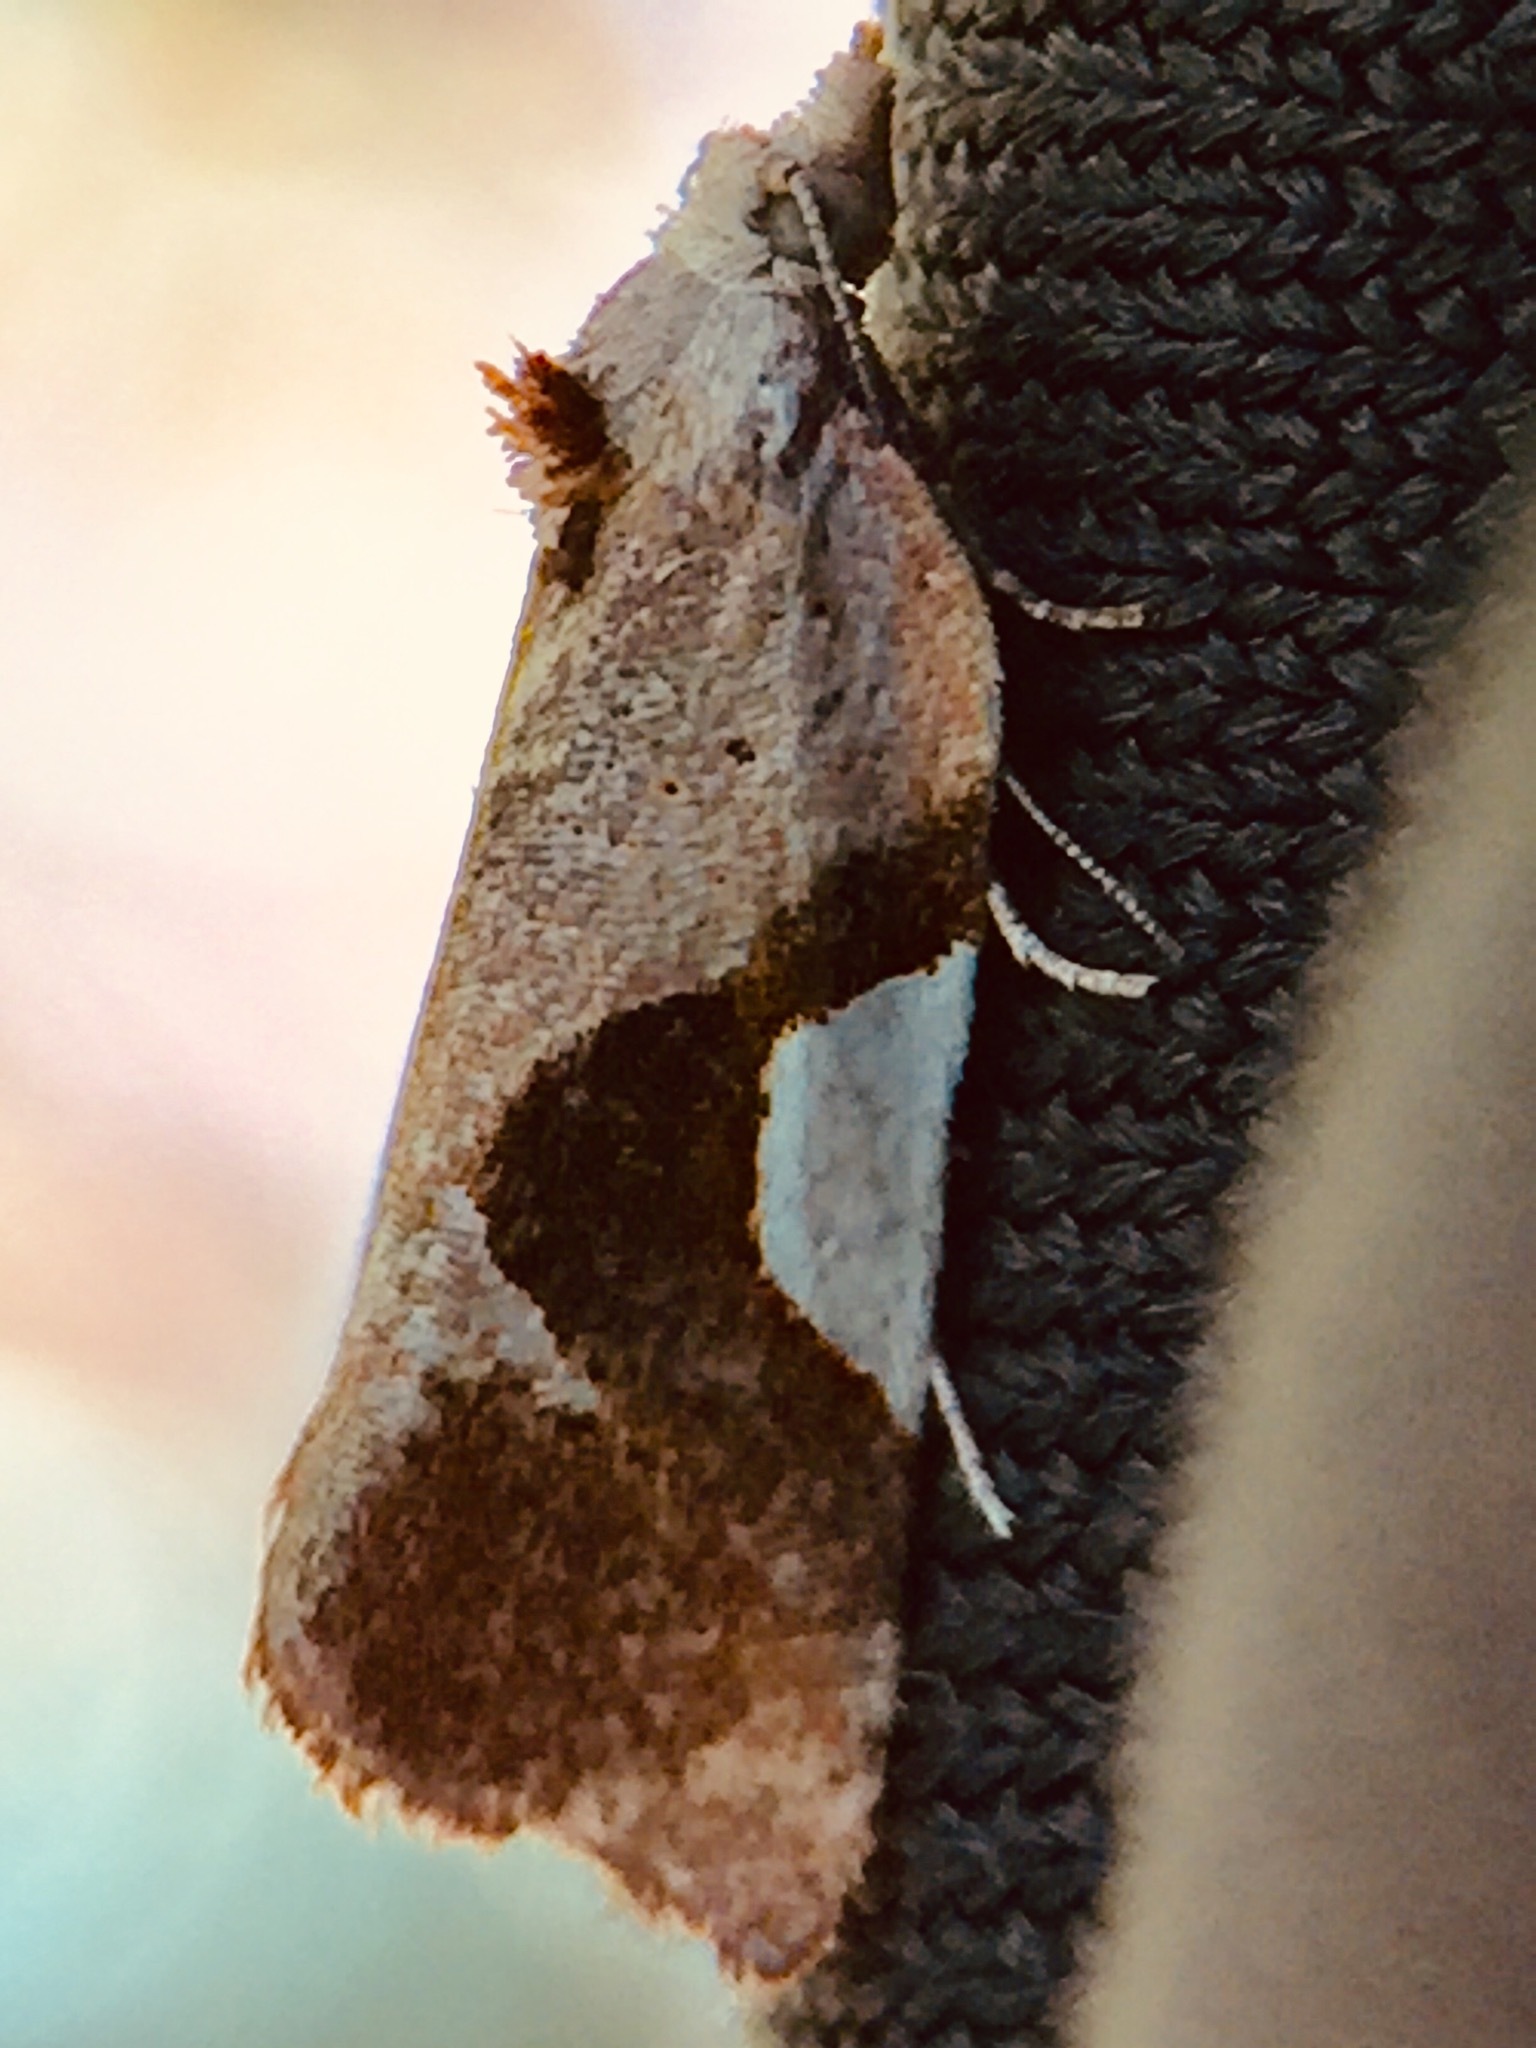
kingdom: Animalia
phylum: Arthropoda
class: Insecta
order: Lepidoptera
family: Tortricidae
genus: Pyrgotis
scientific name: Pyrgotis plagiatana
